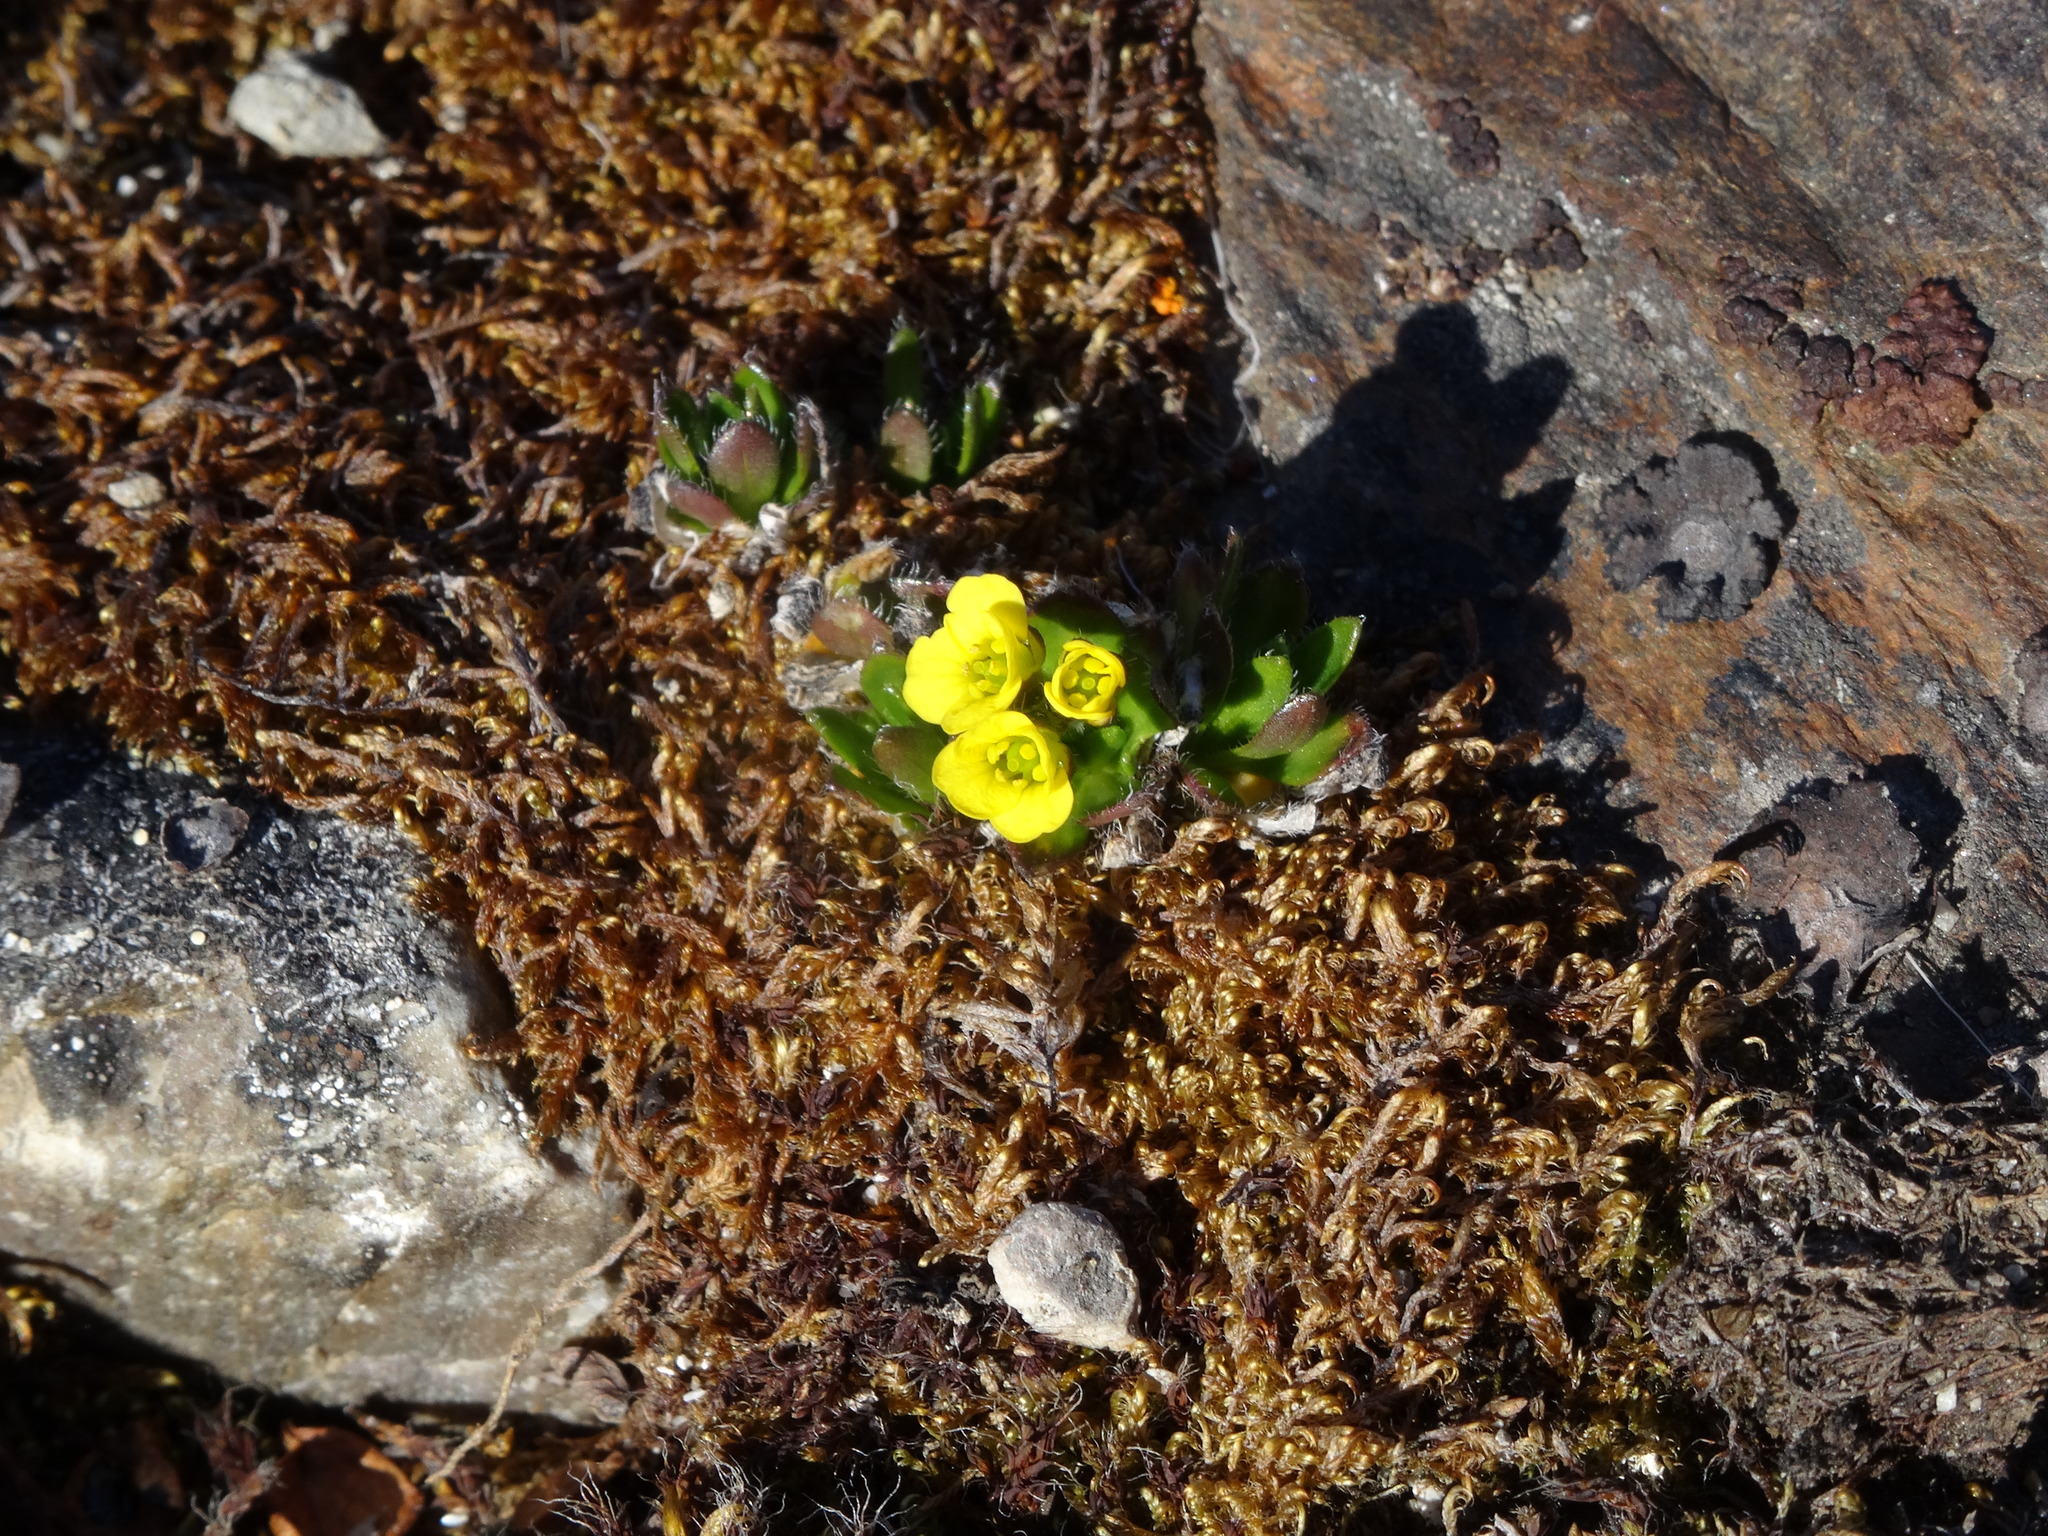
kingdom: Plantae
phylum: Tracheophyta
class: Magnoliopsida
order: Brassicales
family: Brassicaceae
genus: Draba
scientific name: Draba alpina
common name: Alpine draba
